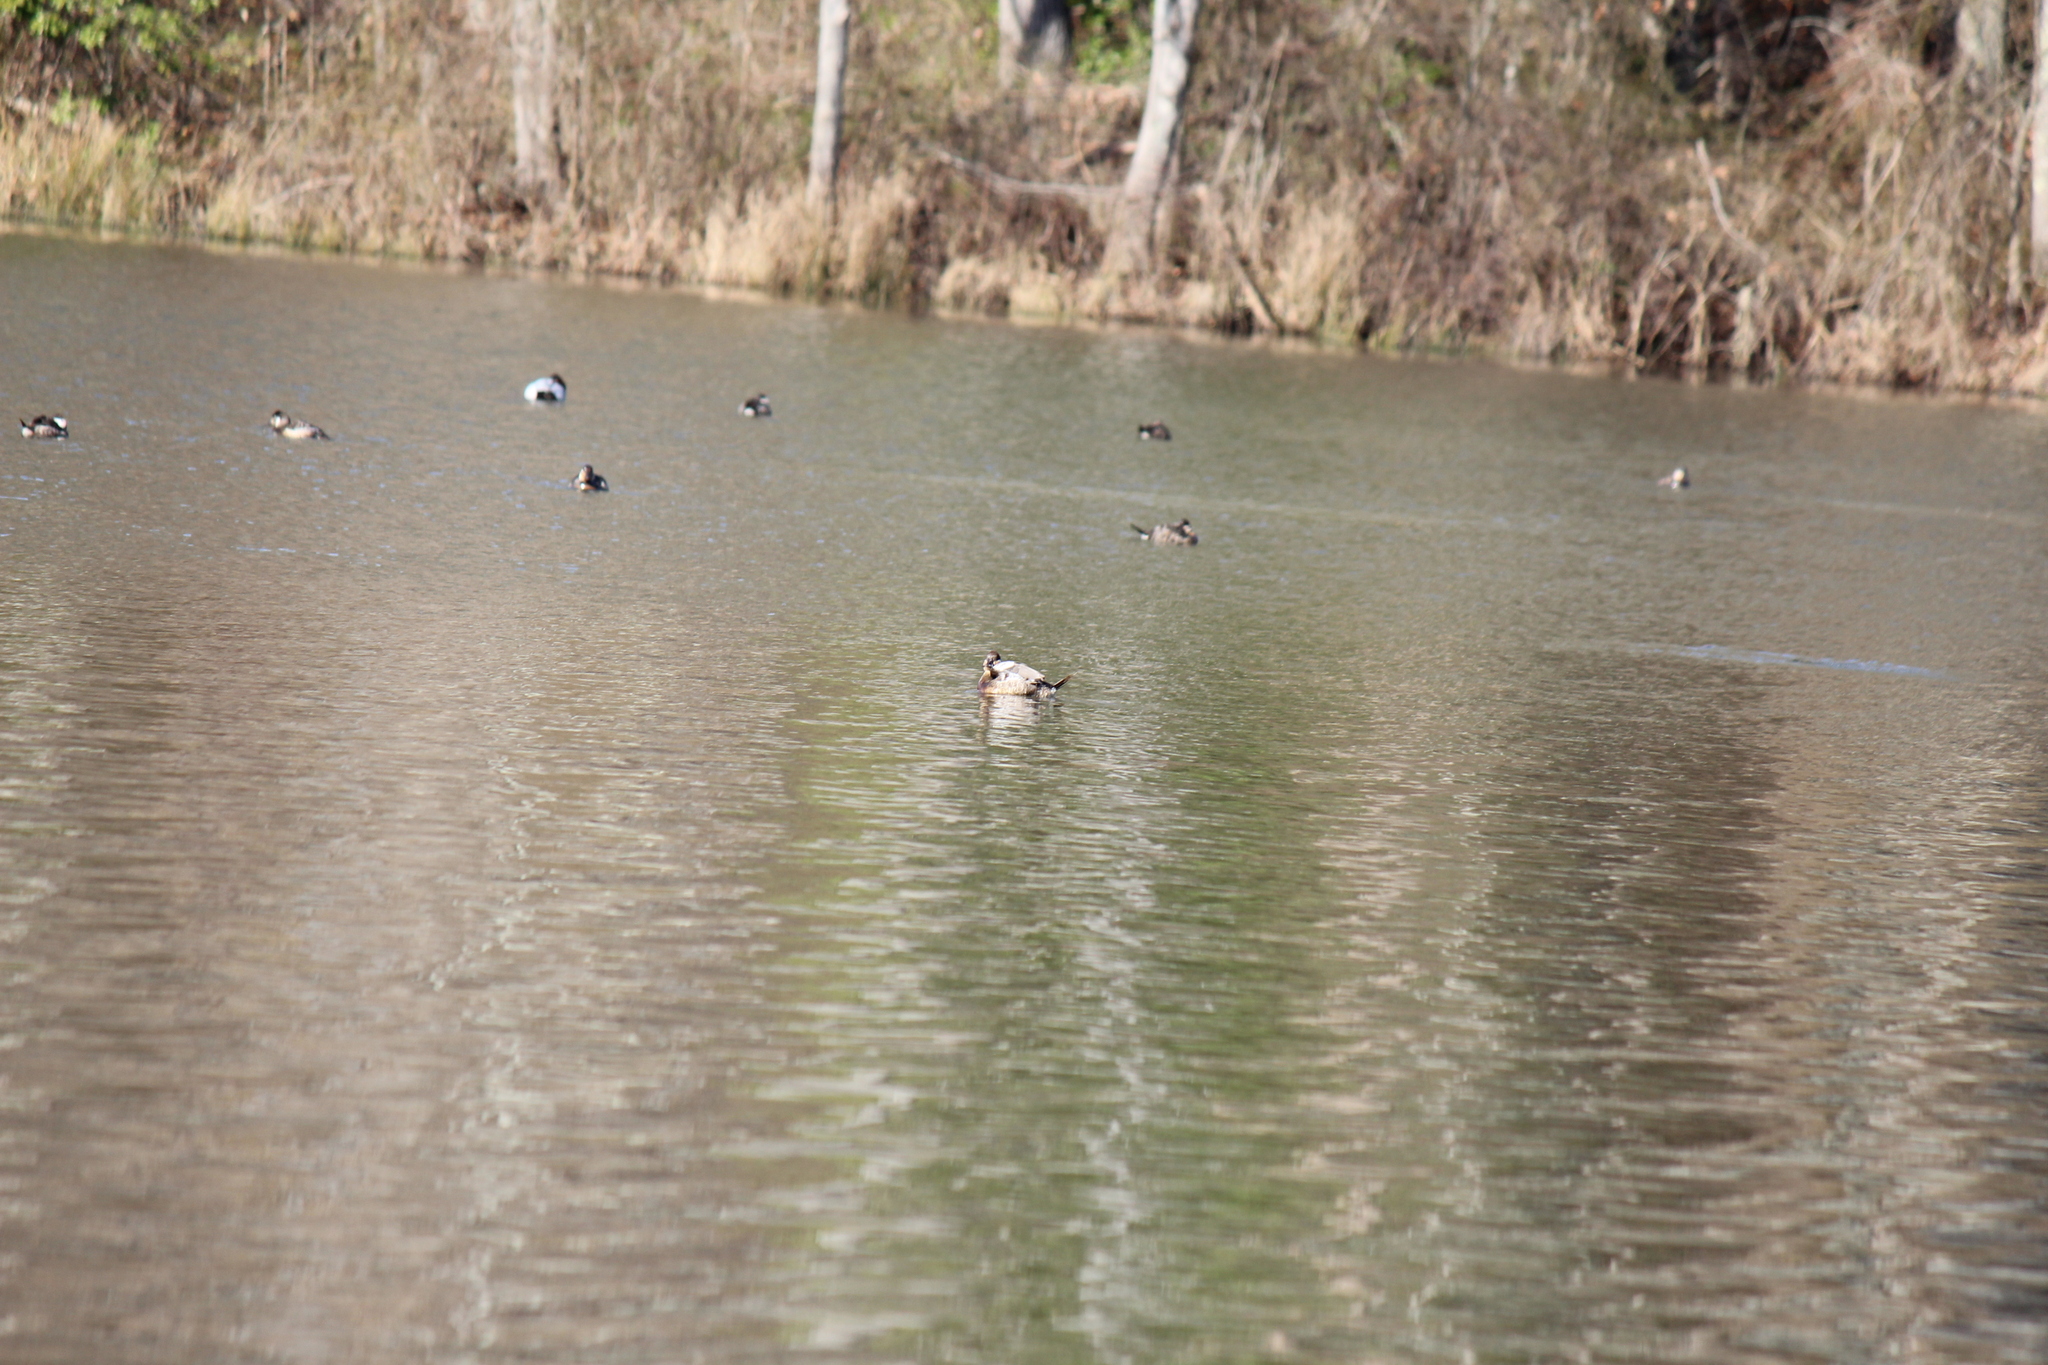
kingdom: Animalia
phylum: Chordata
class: Aves
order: Anseriformes
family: Anatidae
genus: Oxyura
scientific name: Oxyura jamaicensis
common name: Ruddy duck
